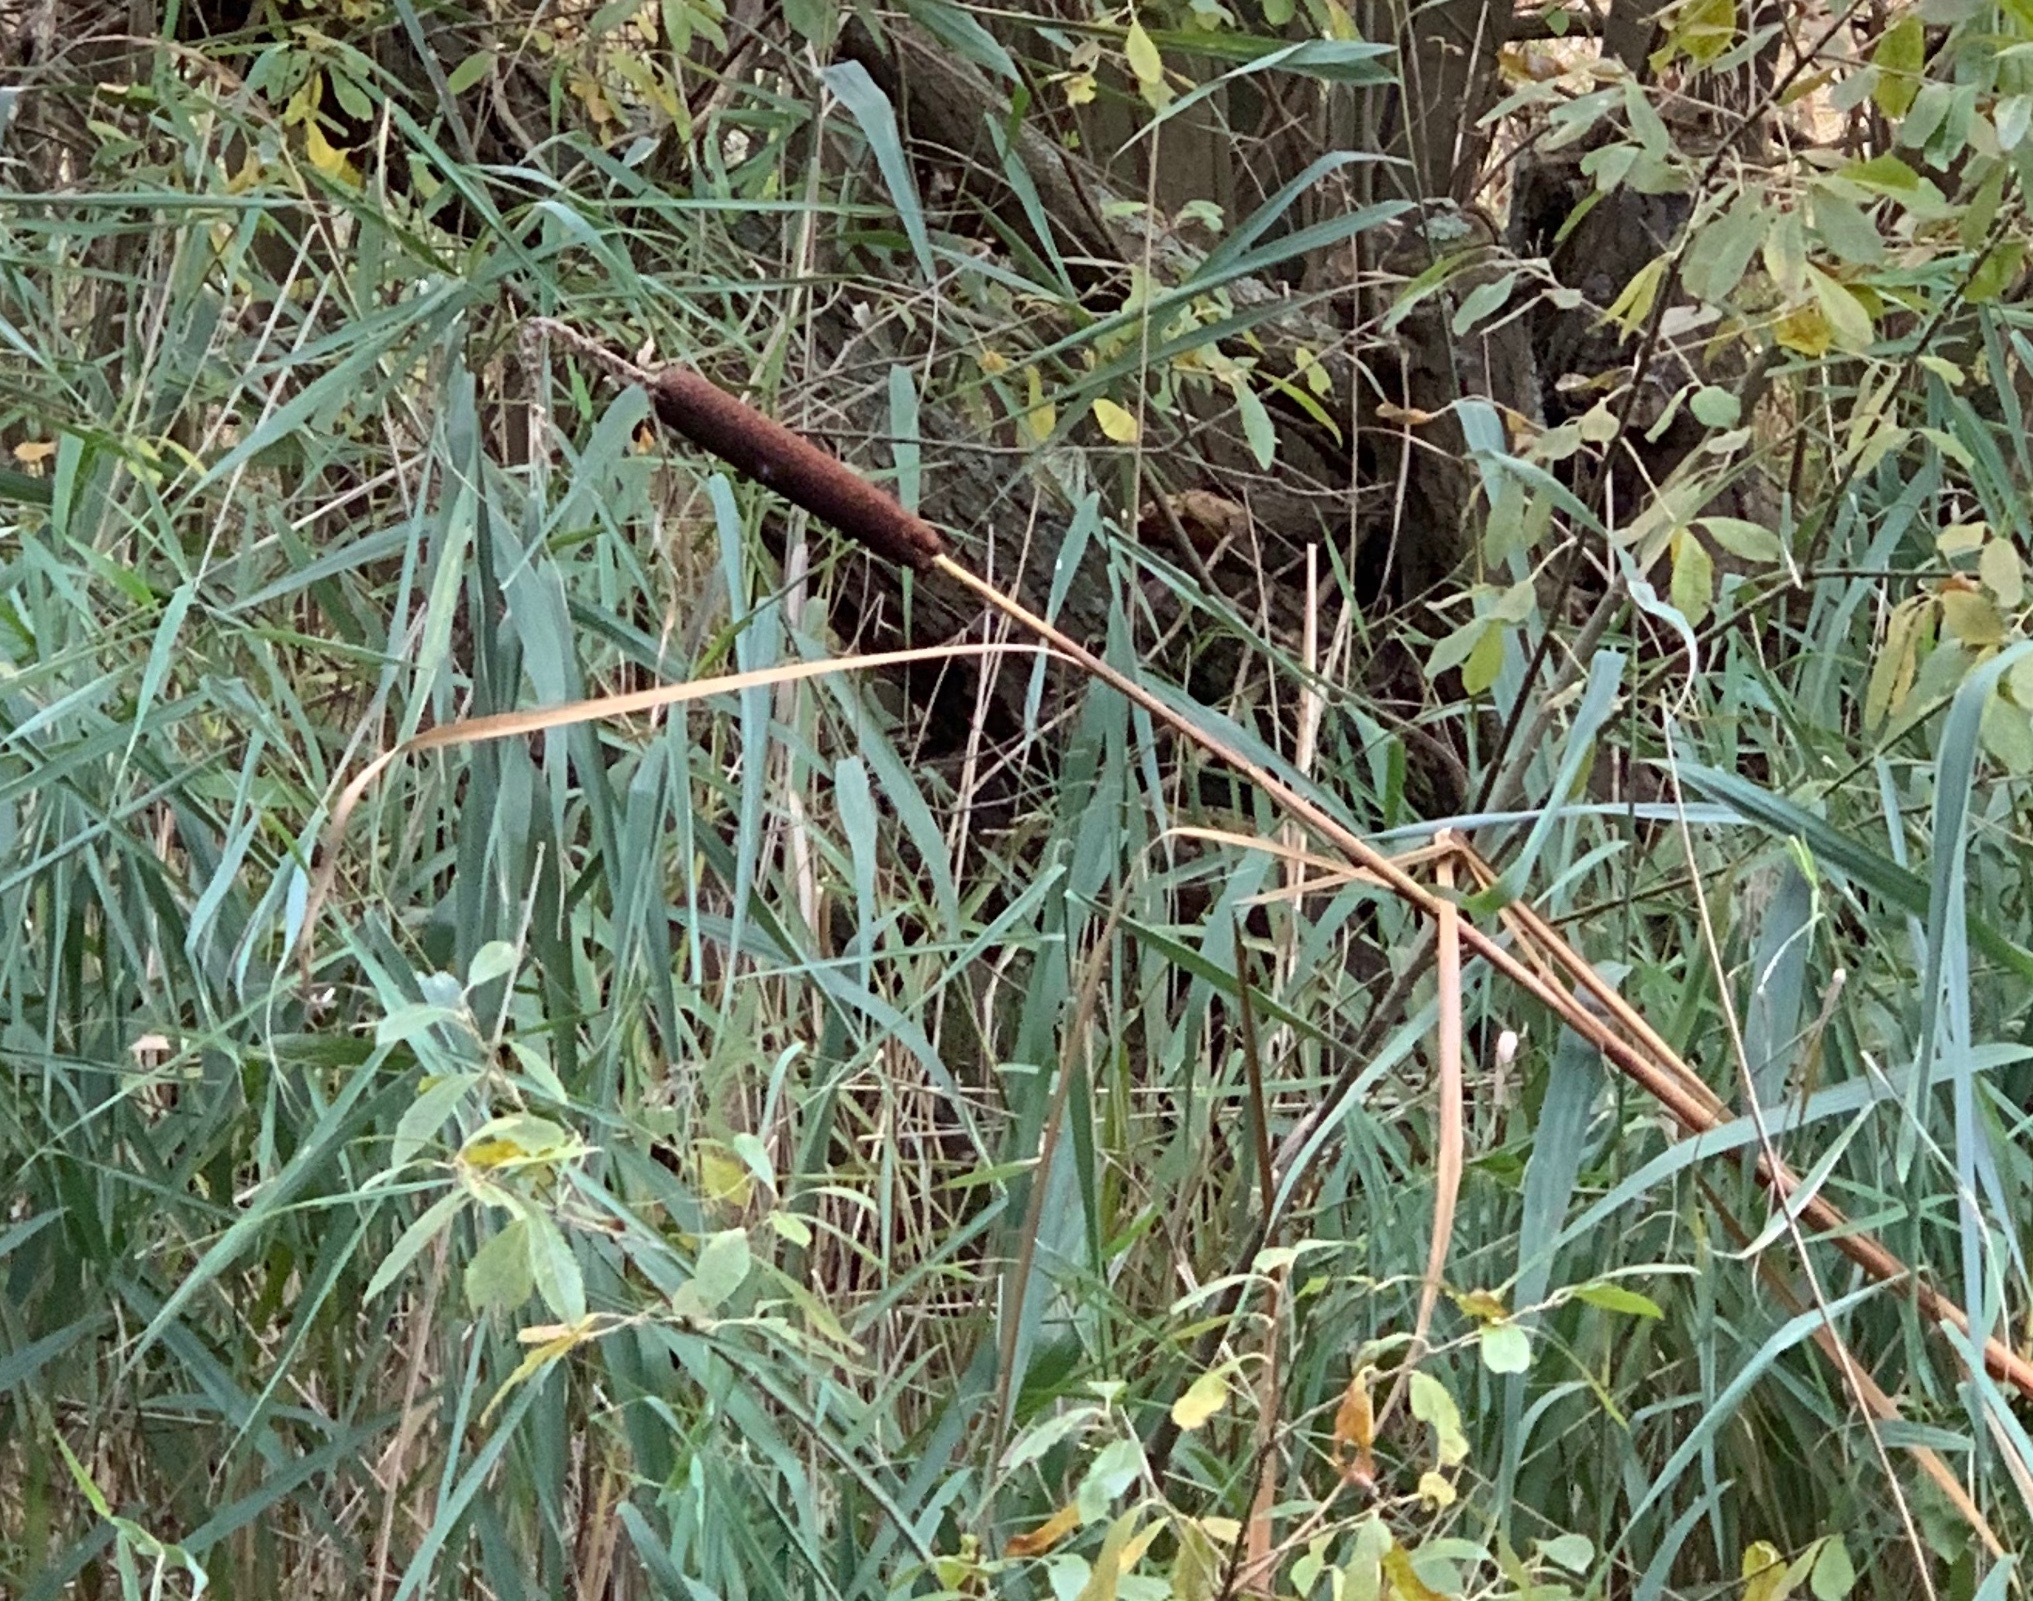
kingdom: Plantae
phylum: Tracheophyta
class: Liliopsida
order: Poales
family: Typhaceae
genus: Typha
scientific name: Typha latifolia
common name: Broadleaf cattail
